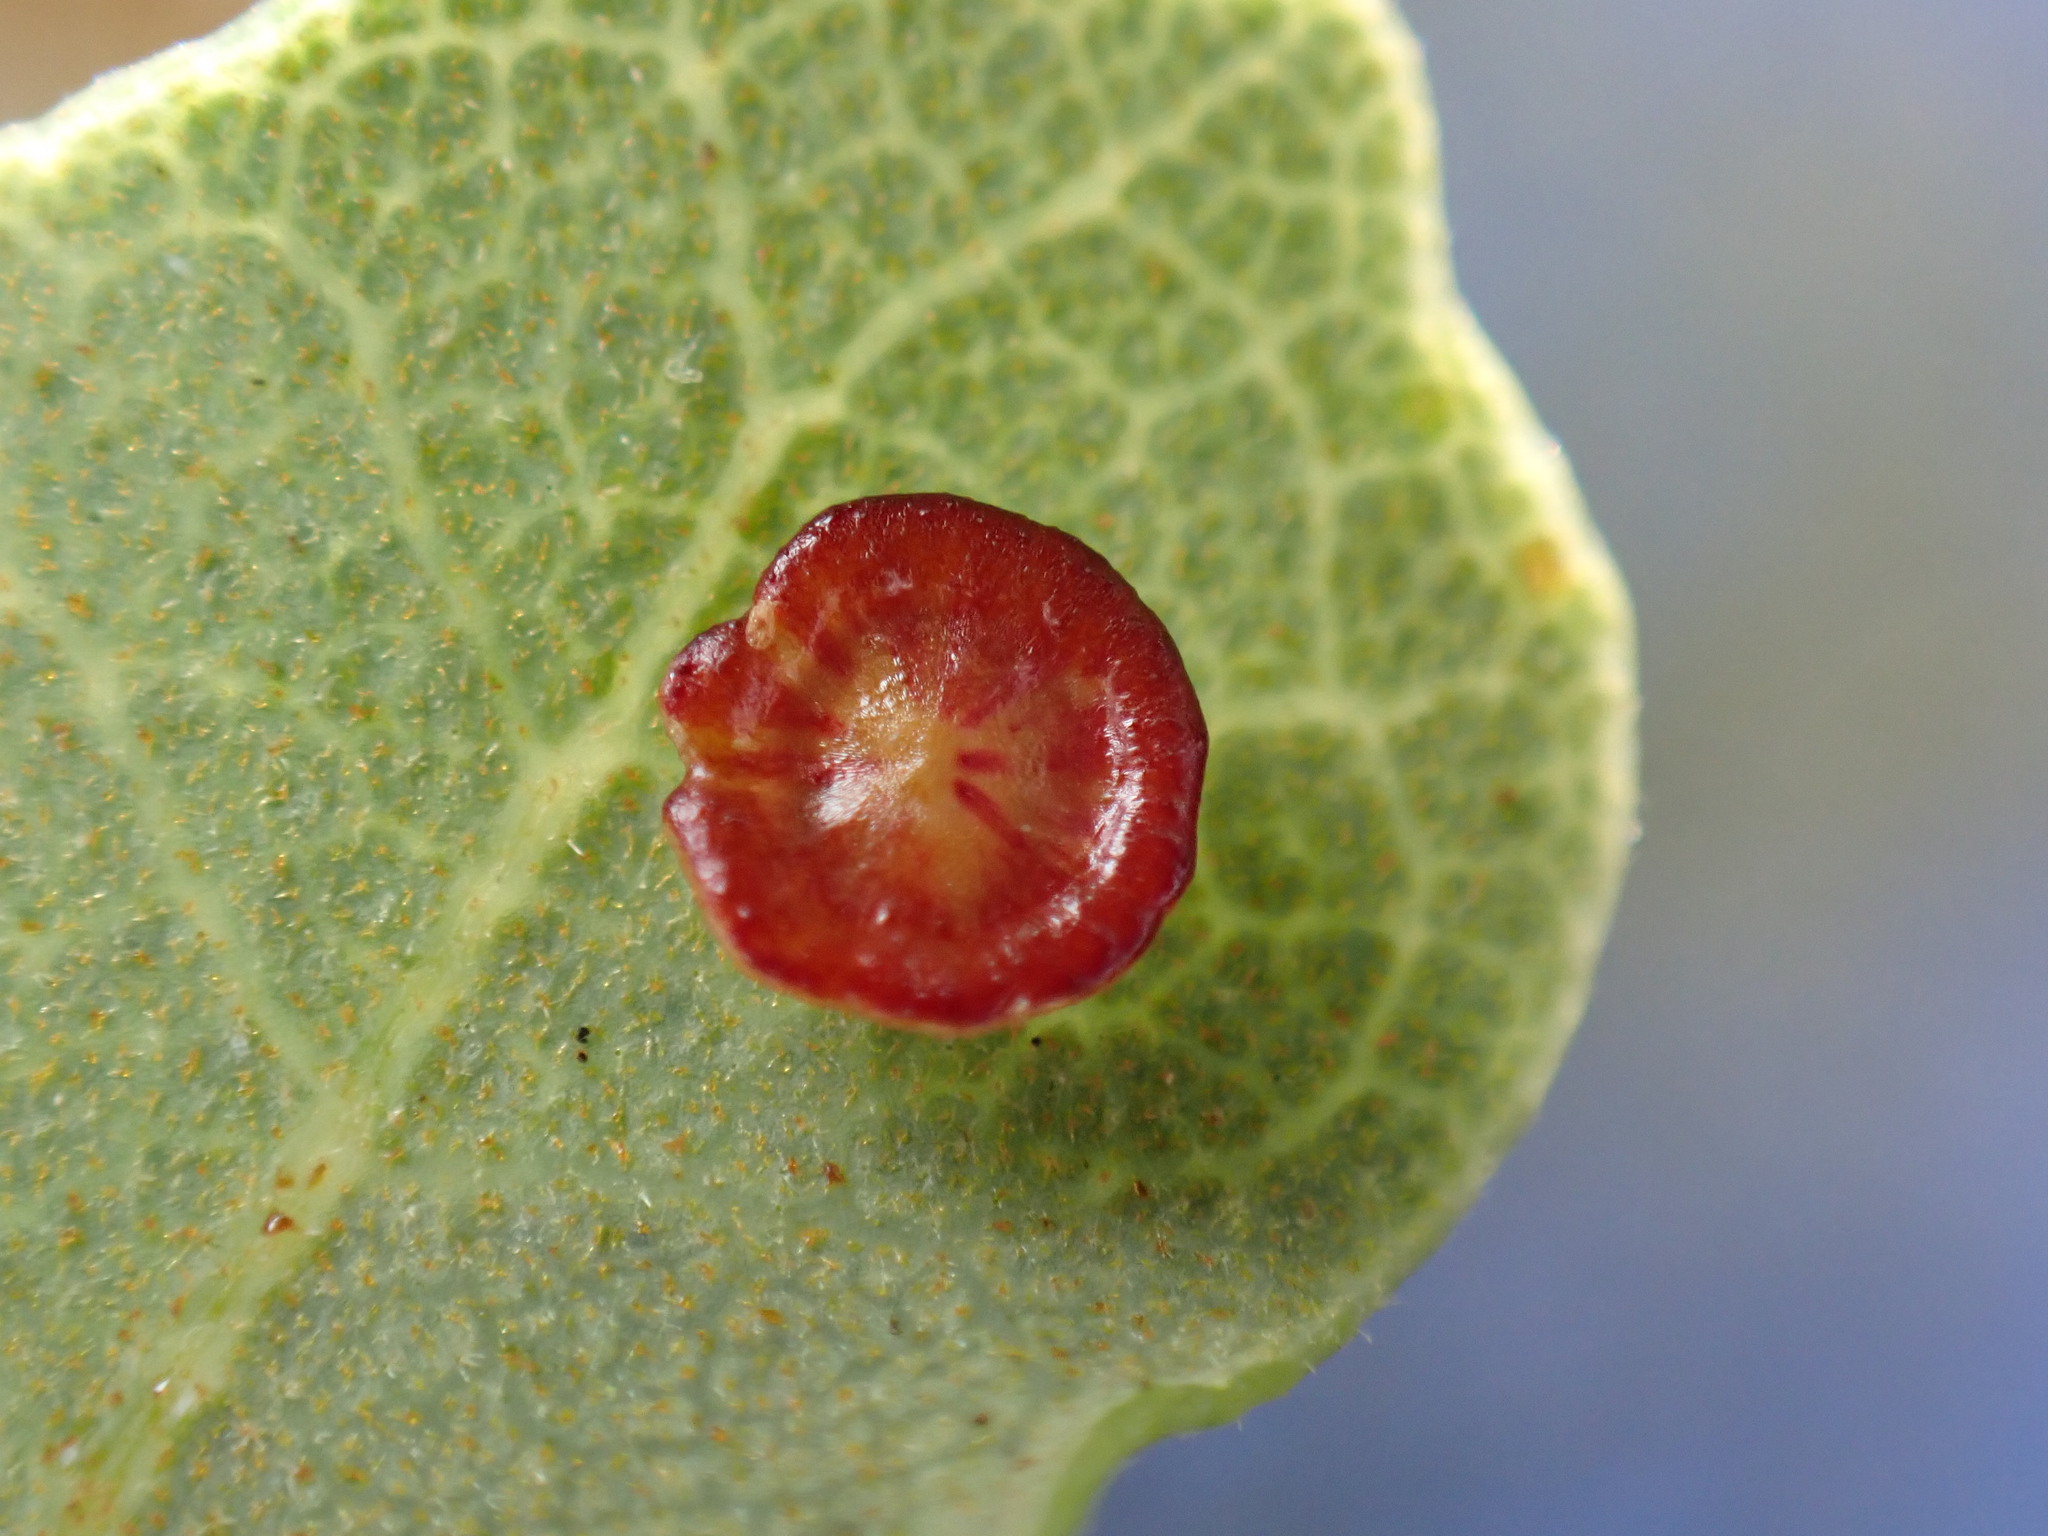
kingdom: Animalia
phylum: Arthropoda
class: Insecta
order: Hymenoptera
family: Cynipidae
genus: Andricus
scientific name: Andricus
